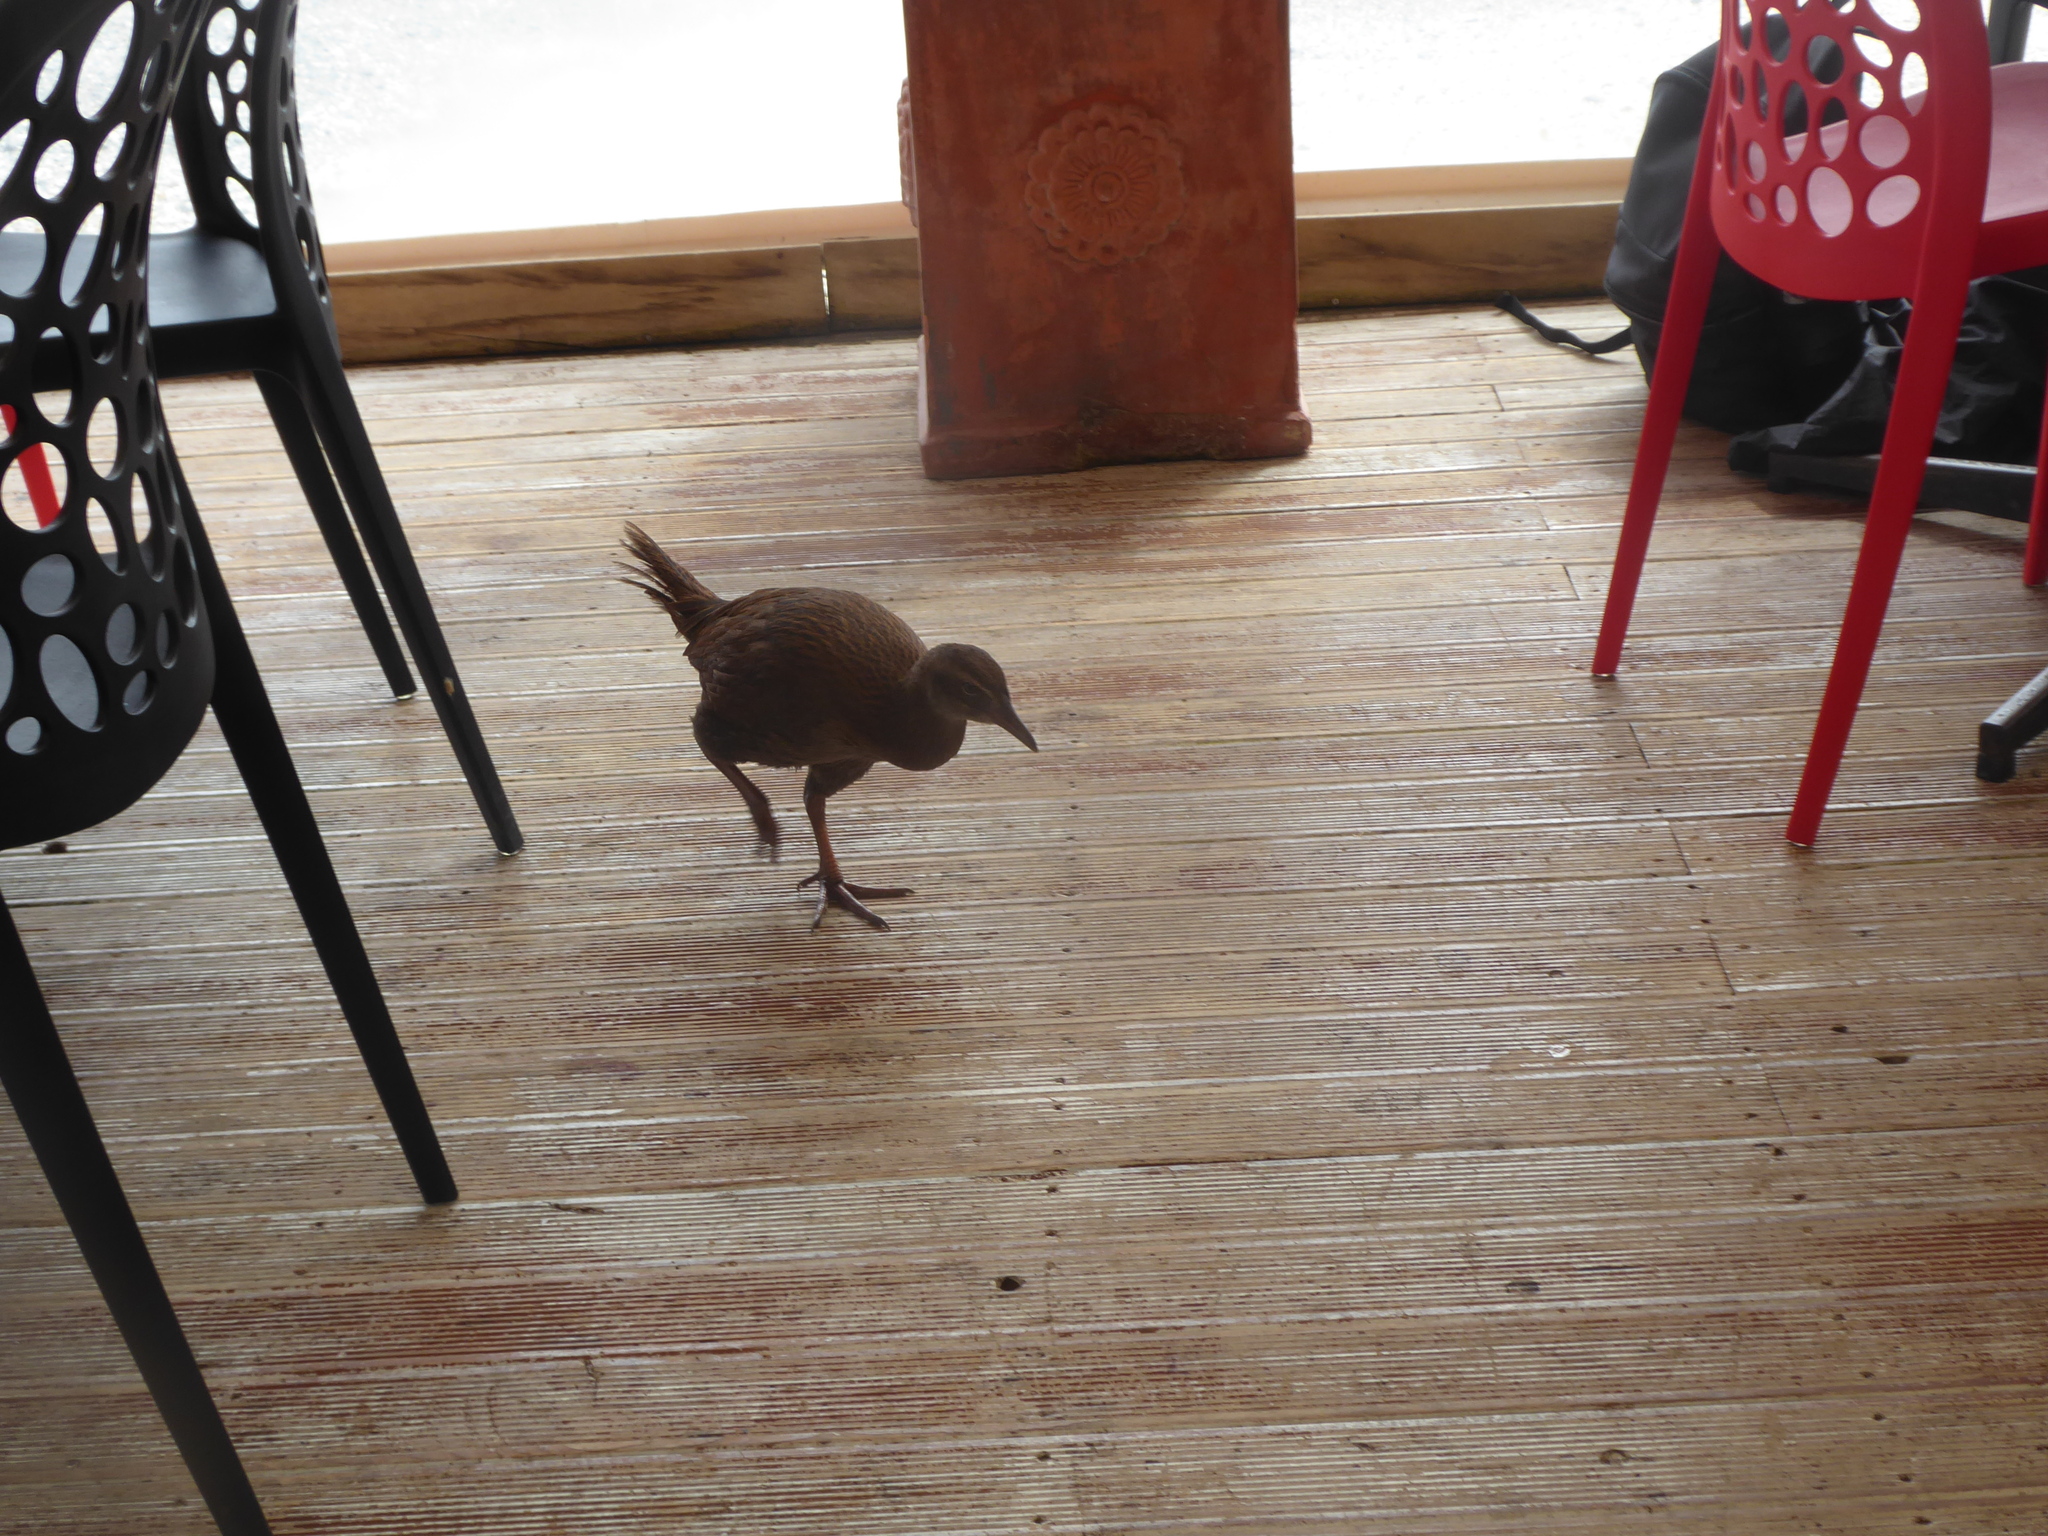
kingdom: Animalia
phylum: Chordata
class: Aves
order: Gruiformes
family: Rallidae
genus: Gallirallus
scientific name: Gallirallus australis
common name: Weka
